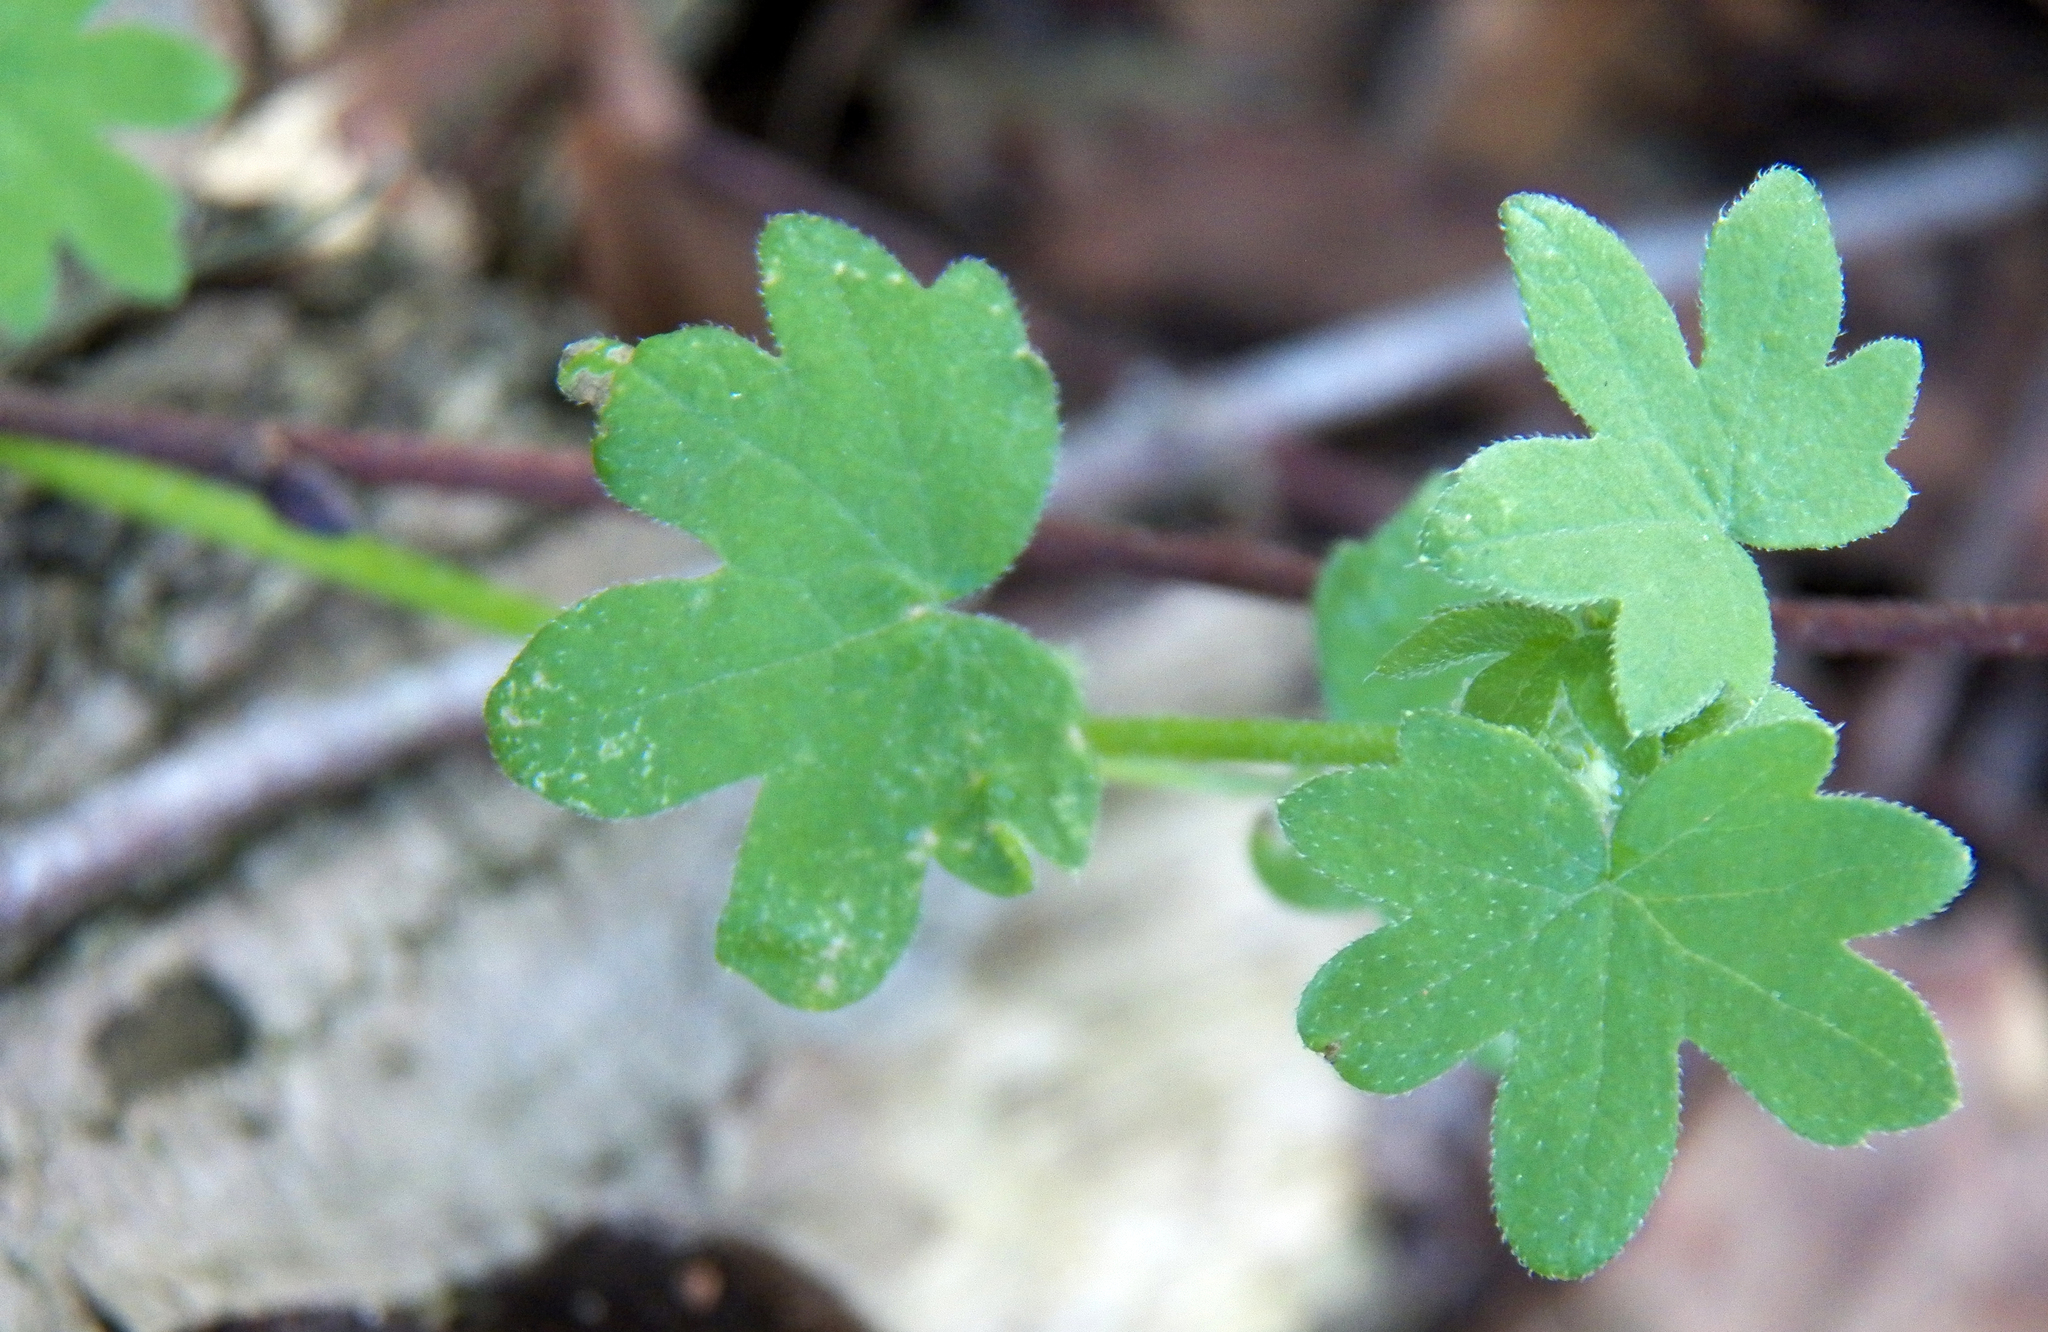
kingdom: Plantae
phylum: Tracheophyta
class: Magnoliopsida
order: Apiales
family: Apiaceae
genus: Bowlesia
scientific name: Bowlesia incana
